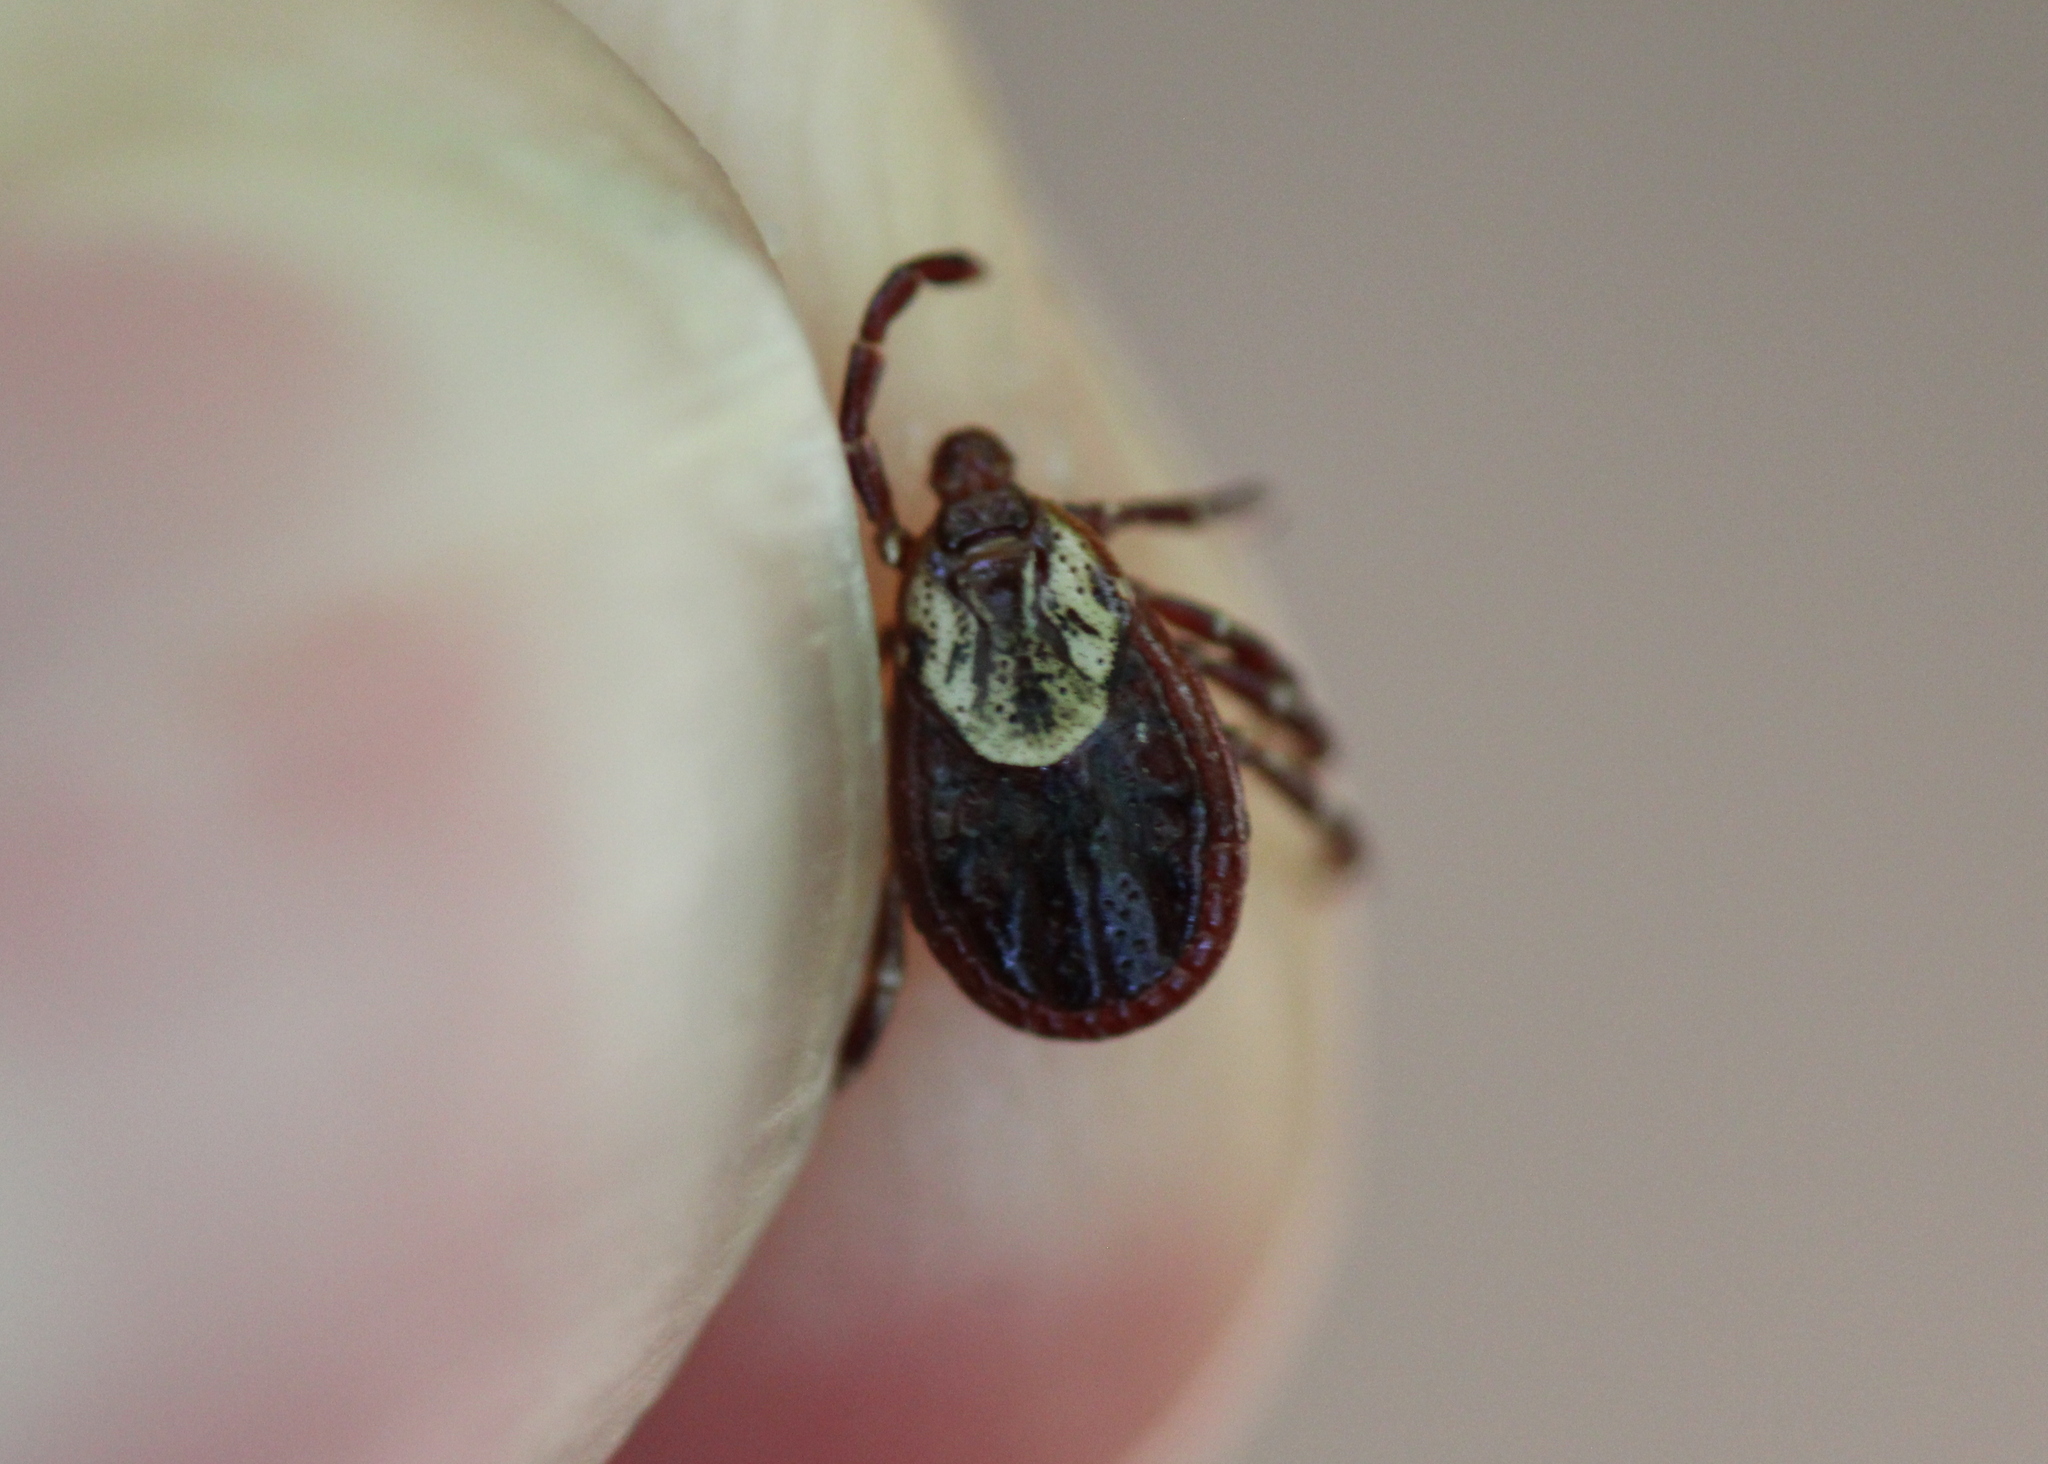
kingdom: Animalia
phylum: Arthropoda
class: Arachnida
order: Ixodida
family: Ixodidae
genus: Dermacentor
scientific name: Dermacentor variabilis
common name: American dog tick
